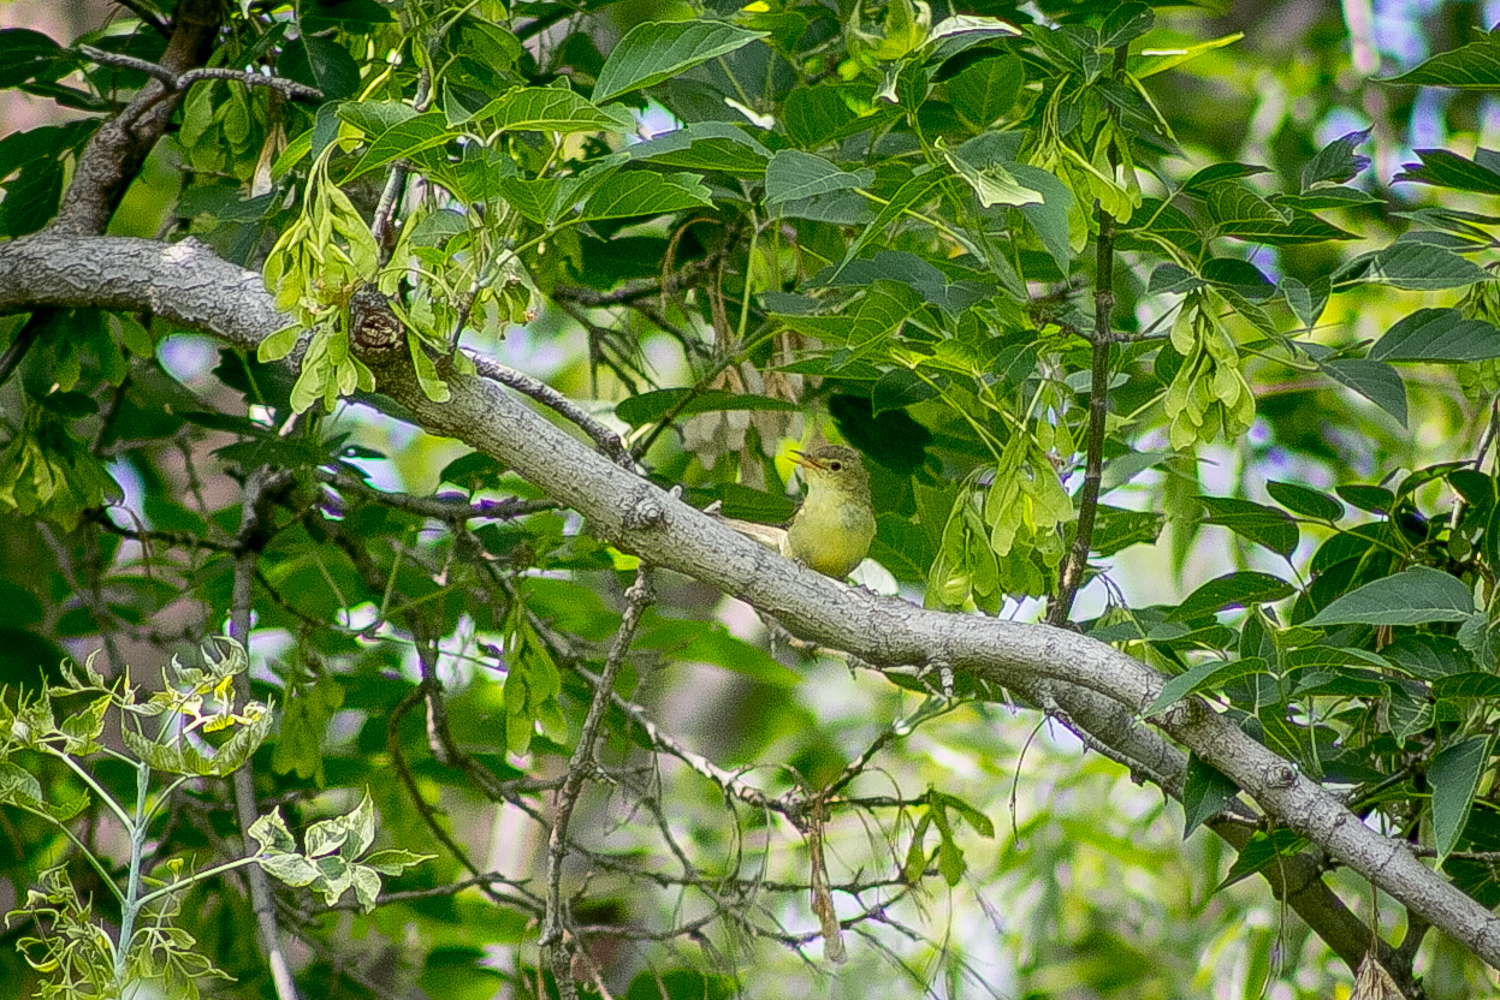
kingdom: Animalia
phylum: Chordata
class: Aves
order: Passeriformes
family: Acrocephalidae
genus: Hippolais
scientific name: Hippolais icterina
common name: Icterine warbler
